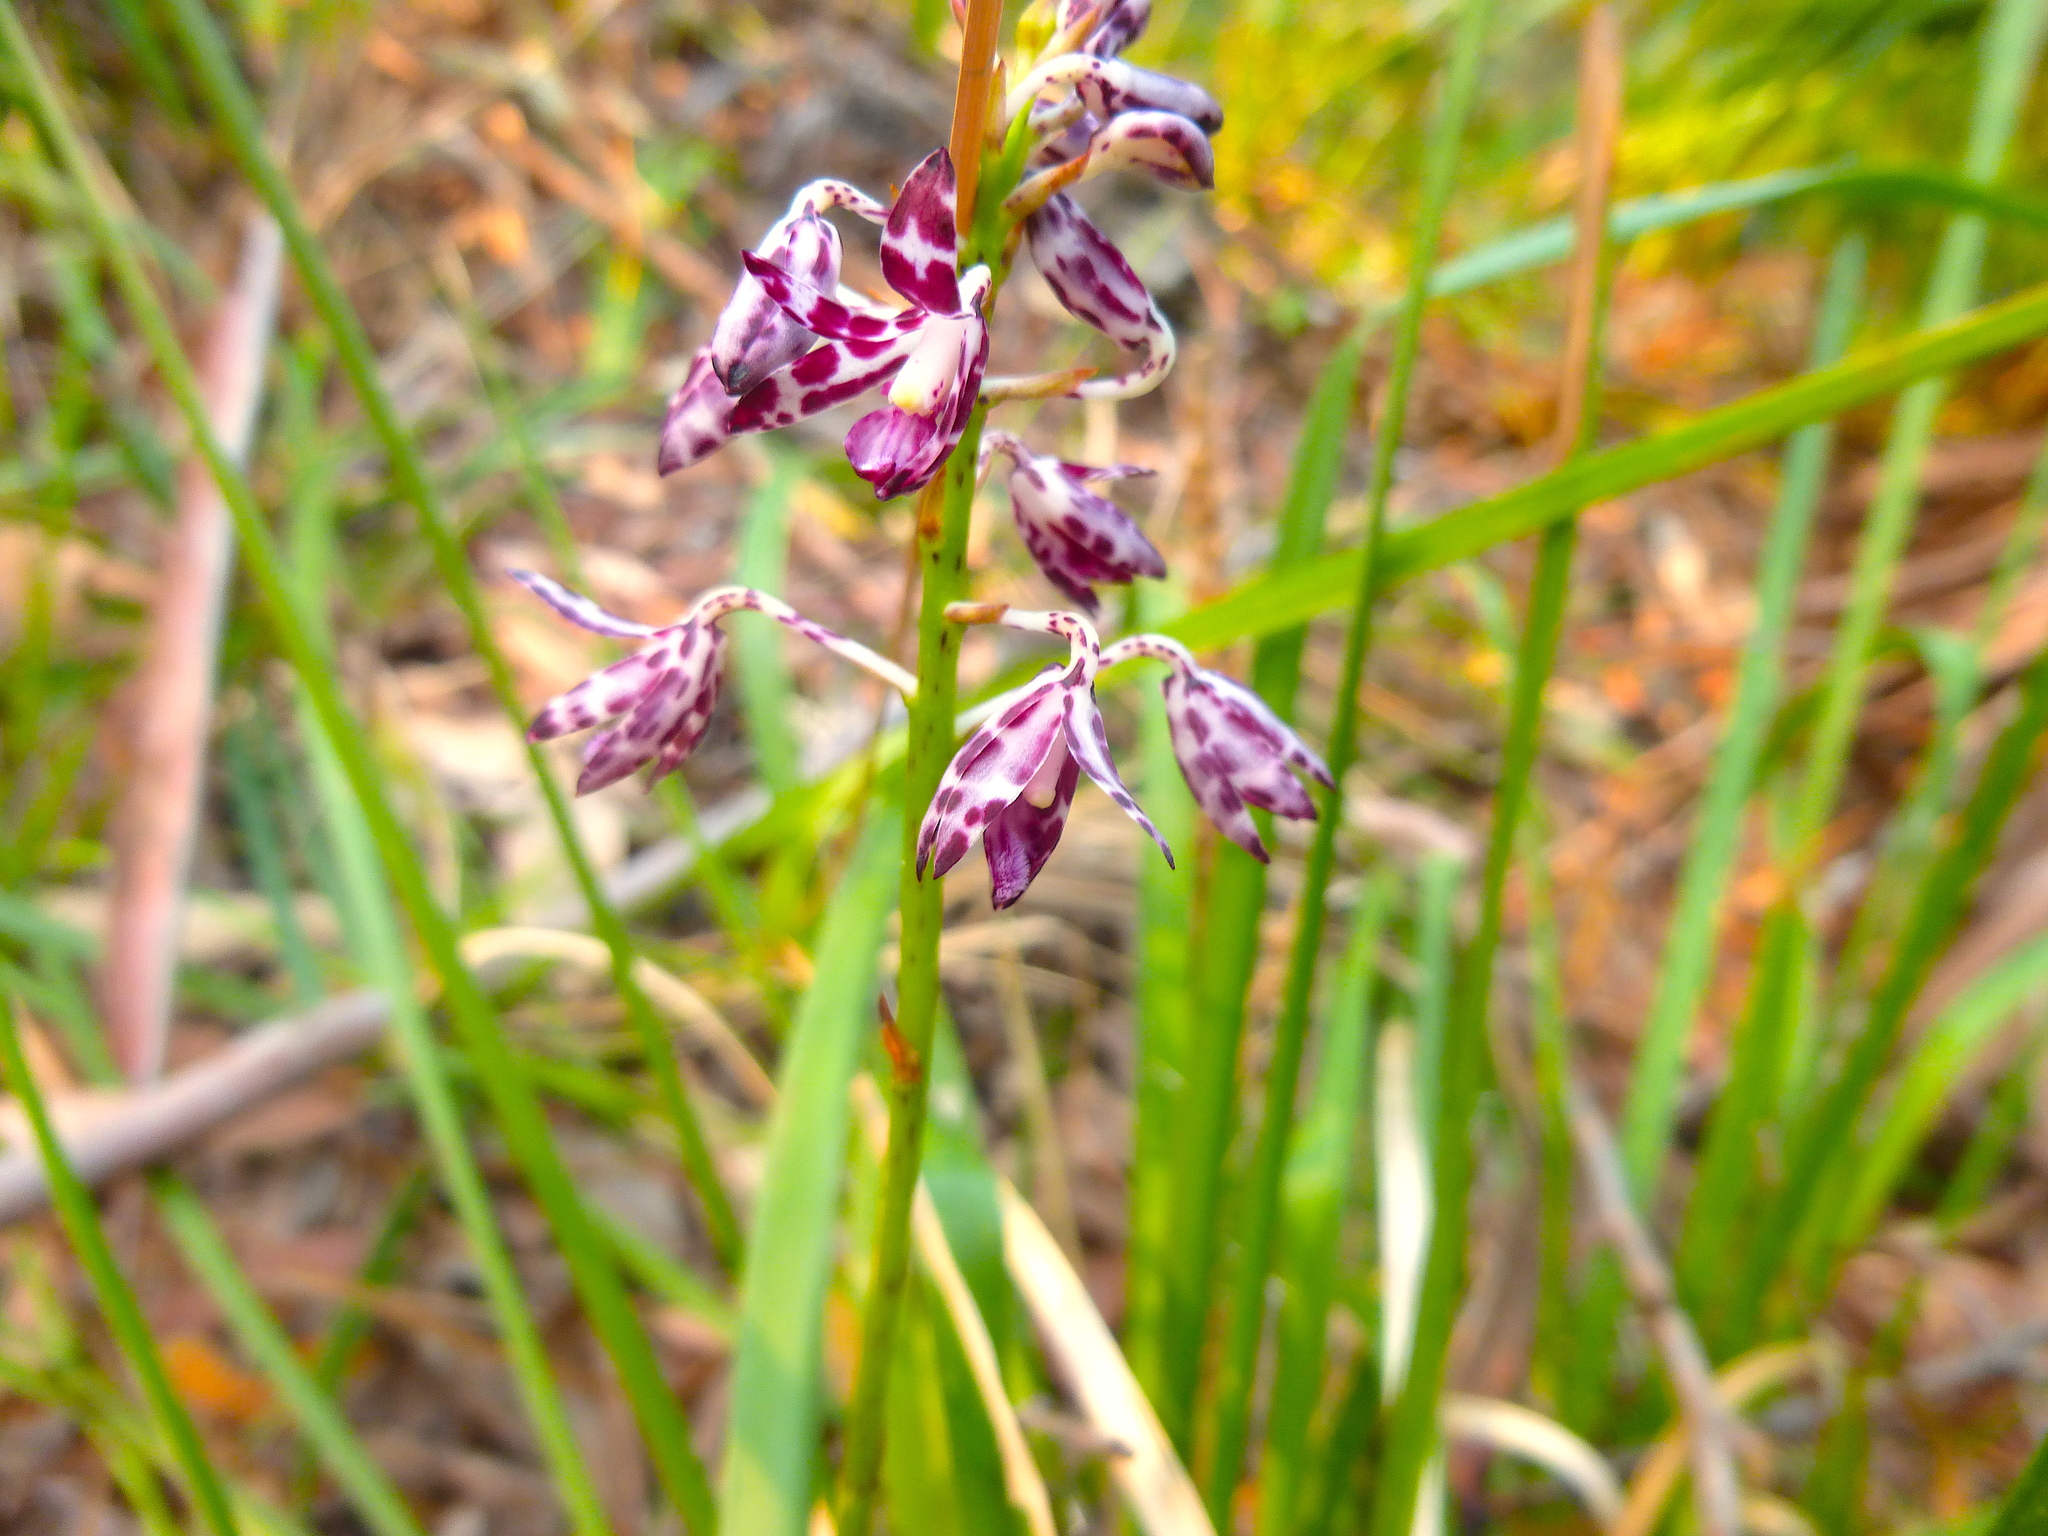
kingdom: Plantae
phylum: Tracheophyta
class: Liliopsida
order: Asparagales
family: Orchidaceae
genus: Dipodium
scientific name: Dipodium variegatum
